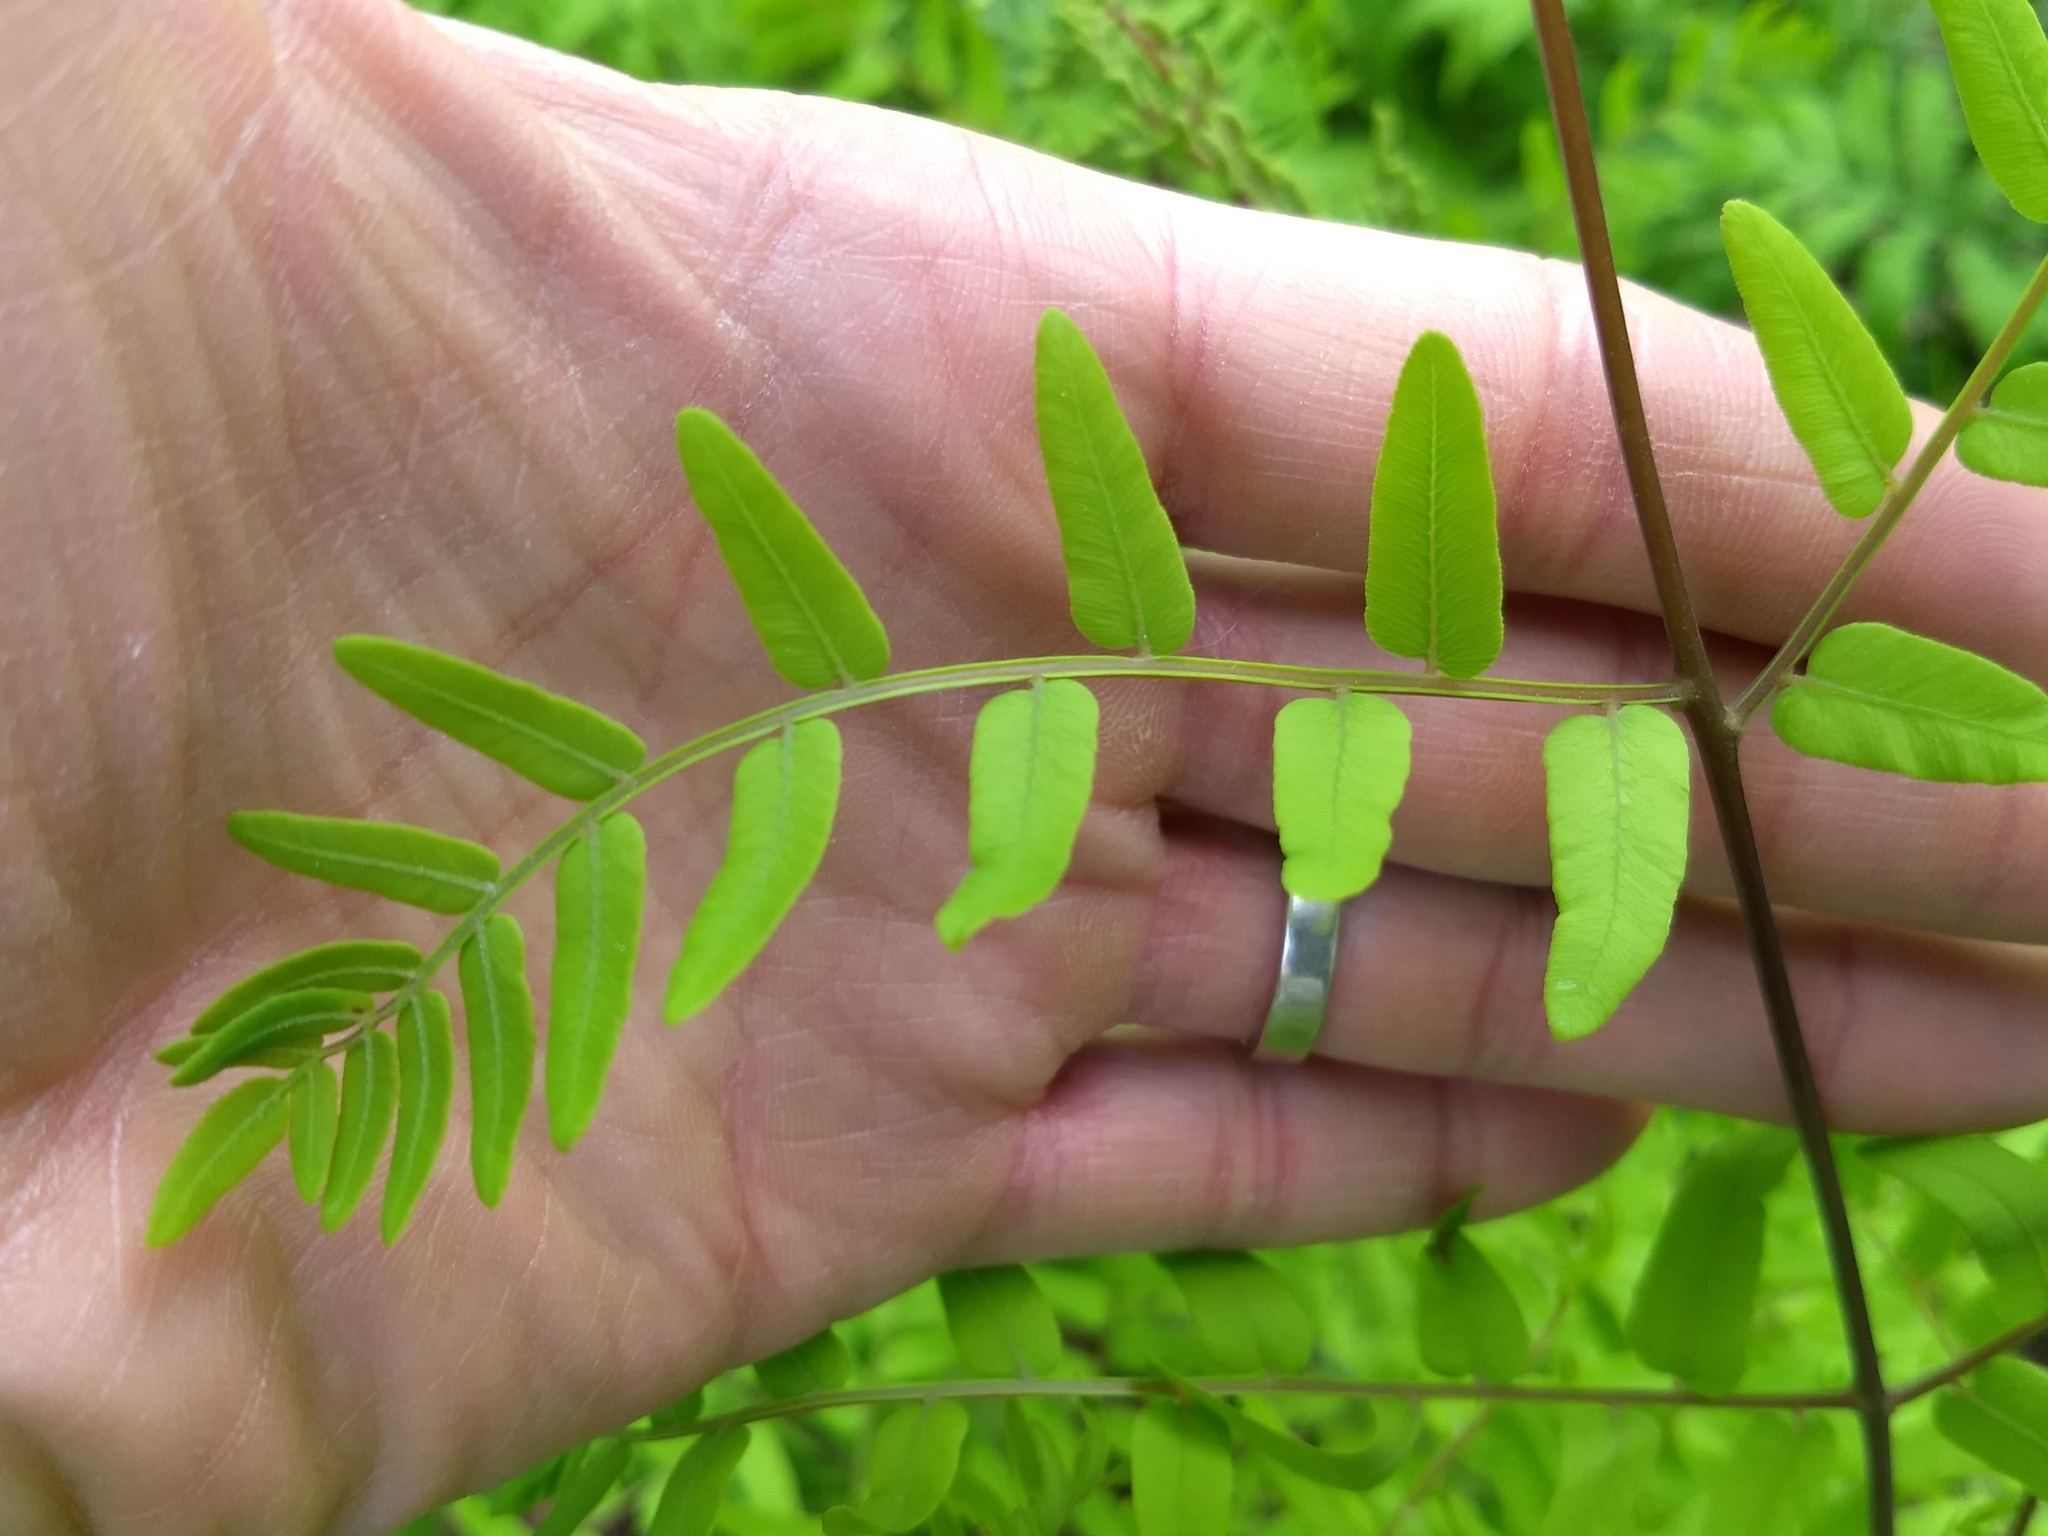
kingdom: Plantae
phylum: Tracheophyta
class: Polypodiopsida
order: Osmundales
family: Osmundaceae
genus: Osmunda
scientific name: Osmunda spectabilis
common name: American royal fern
